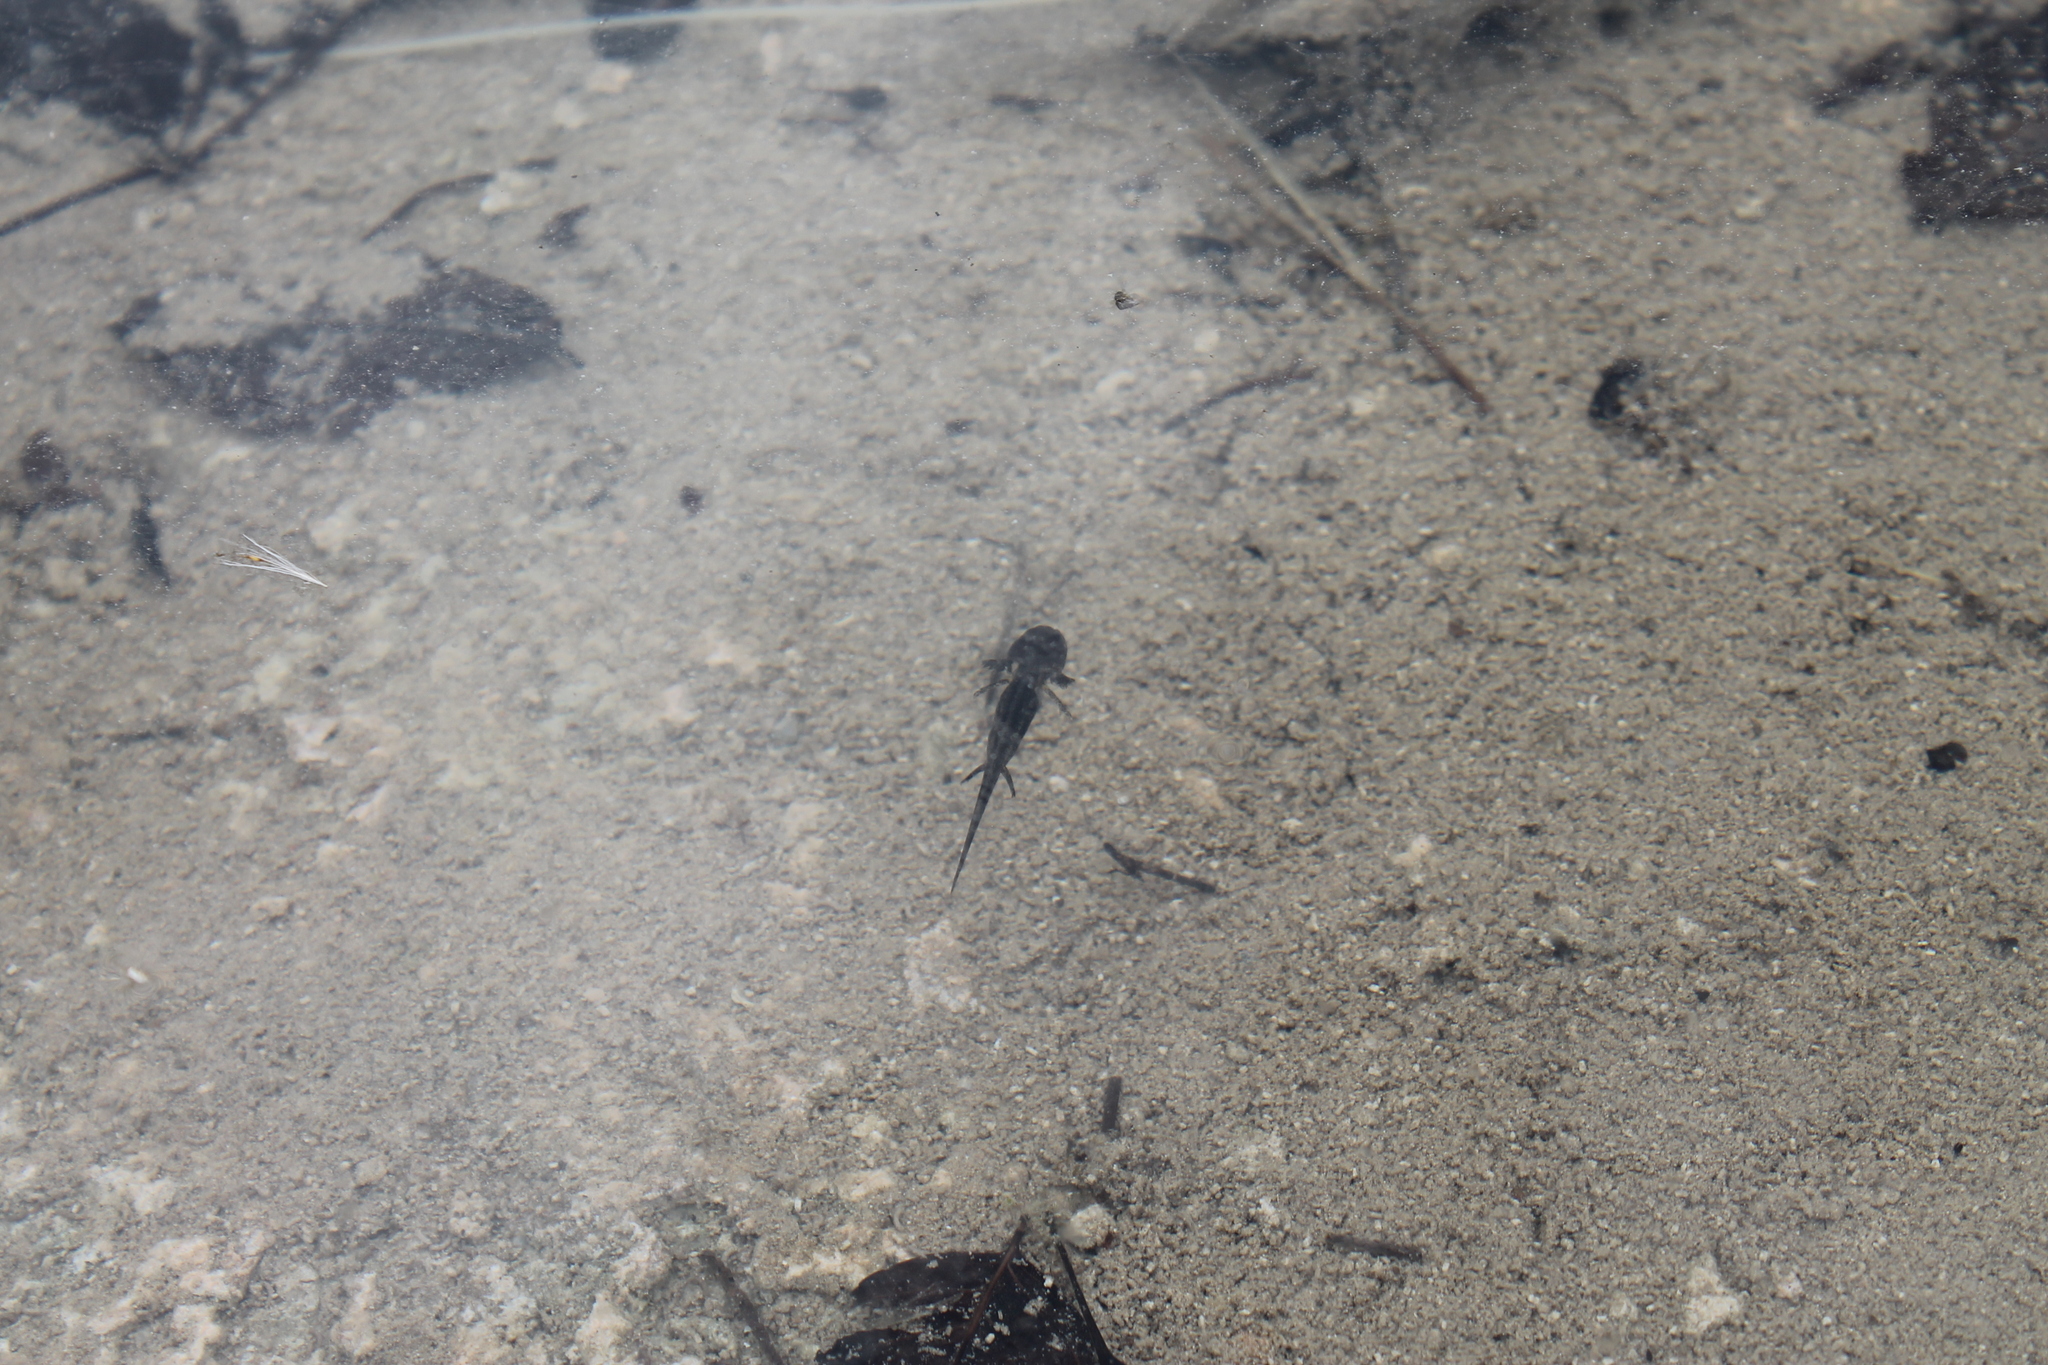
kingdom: Animalia
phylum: Chordata
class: Amphibia
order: Caudata
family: Ambystomatidae
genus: Ambystoma
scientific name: Ambystoma barbouri
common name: Streamside salamander
